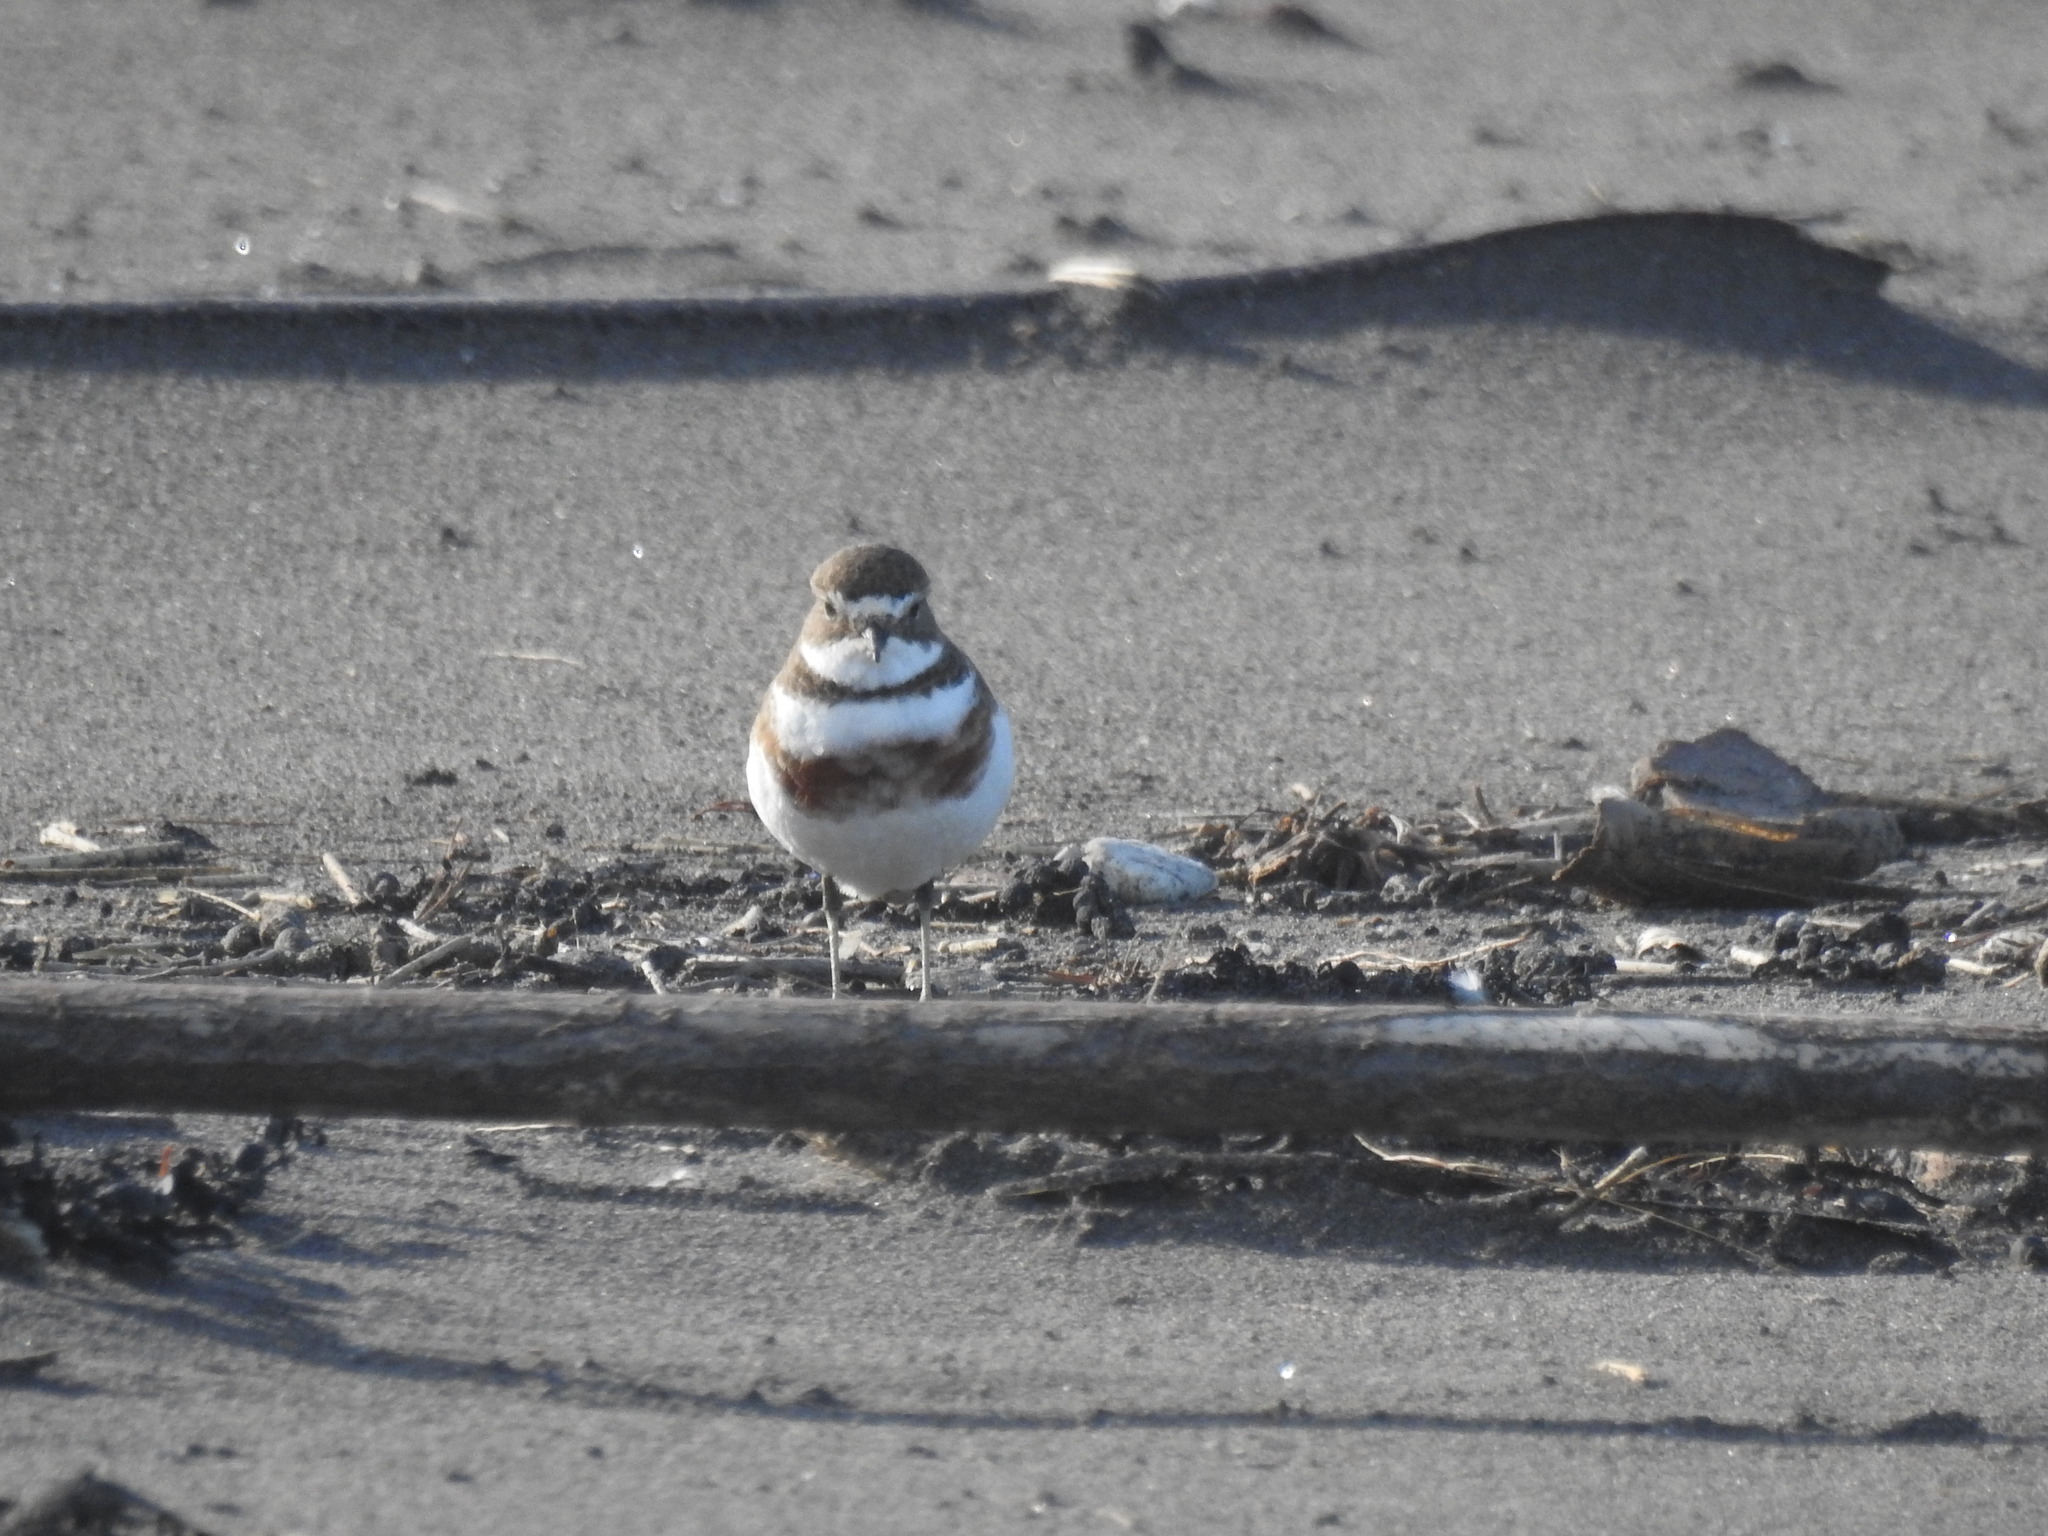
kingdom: Animalia
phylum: Chordata
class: Aves
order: Charadriiformes
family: Charadriidae
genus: Anarhynchus
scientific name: Anarhynchus
